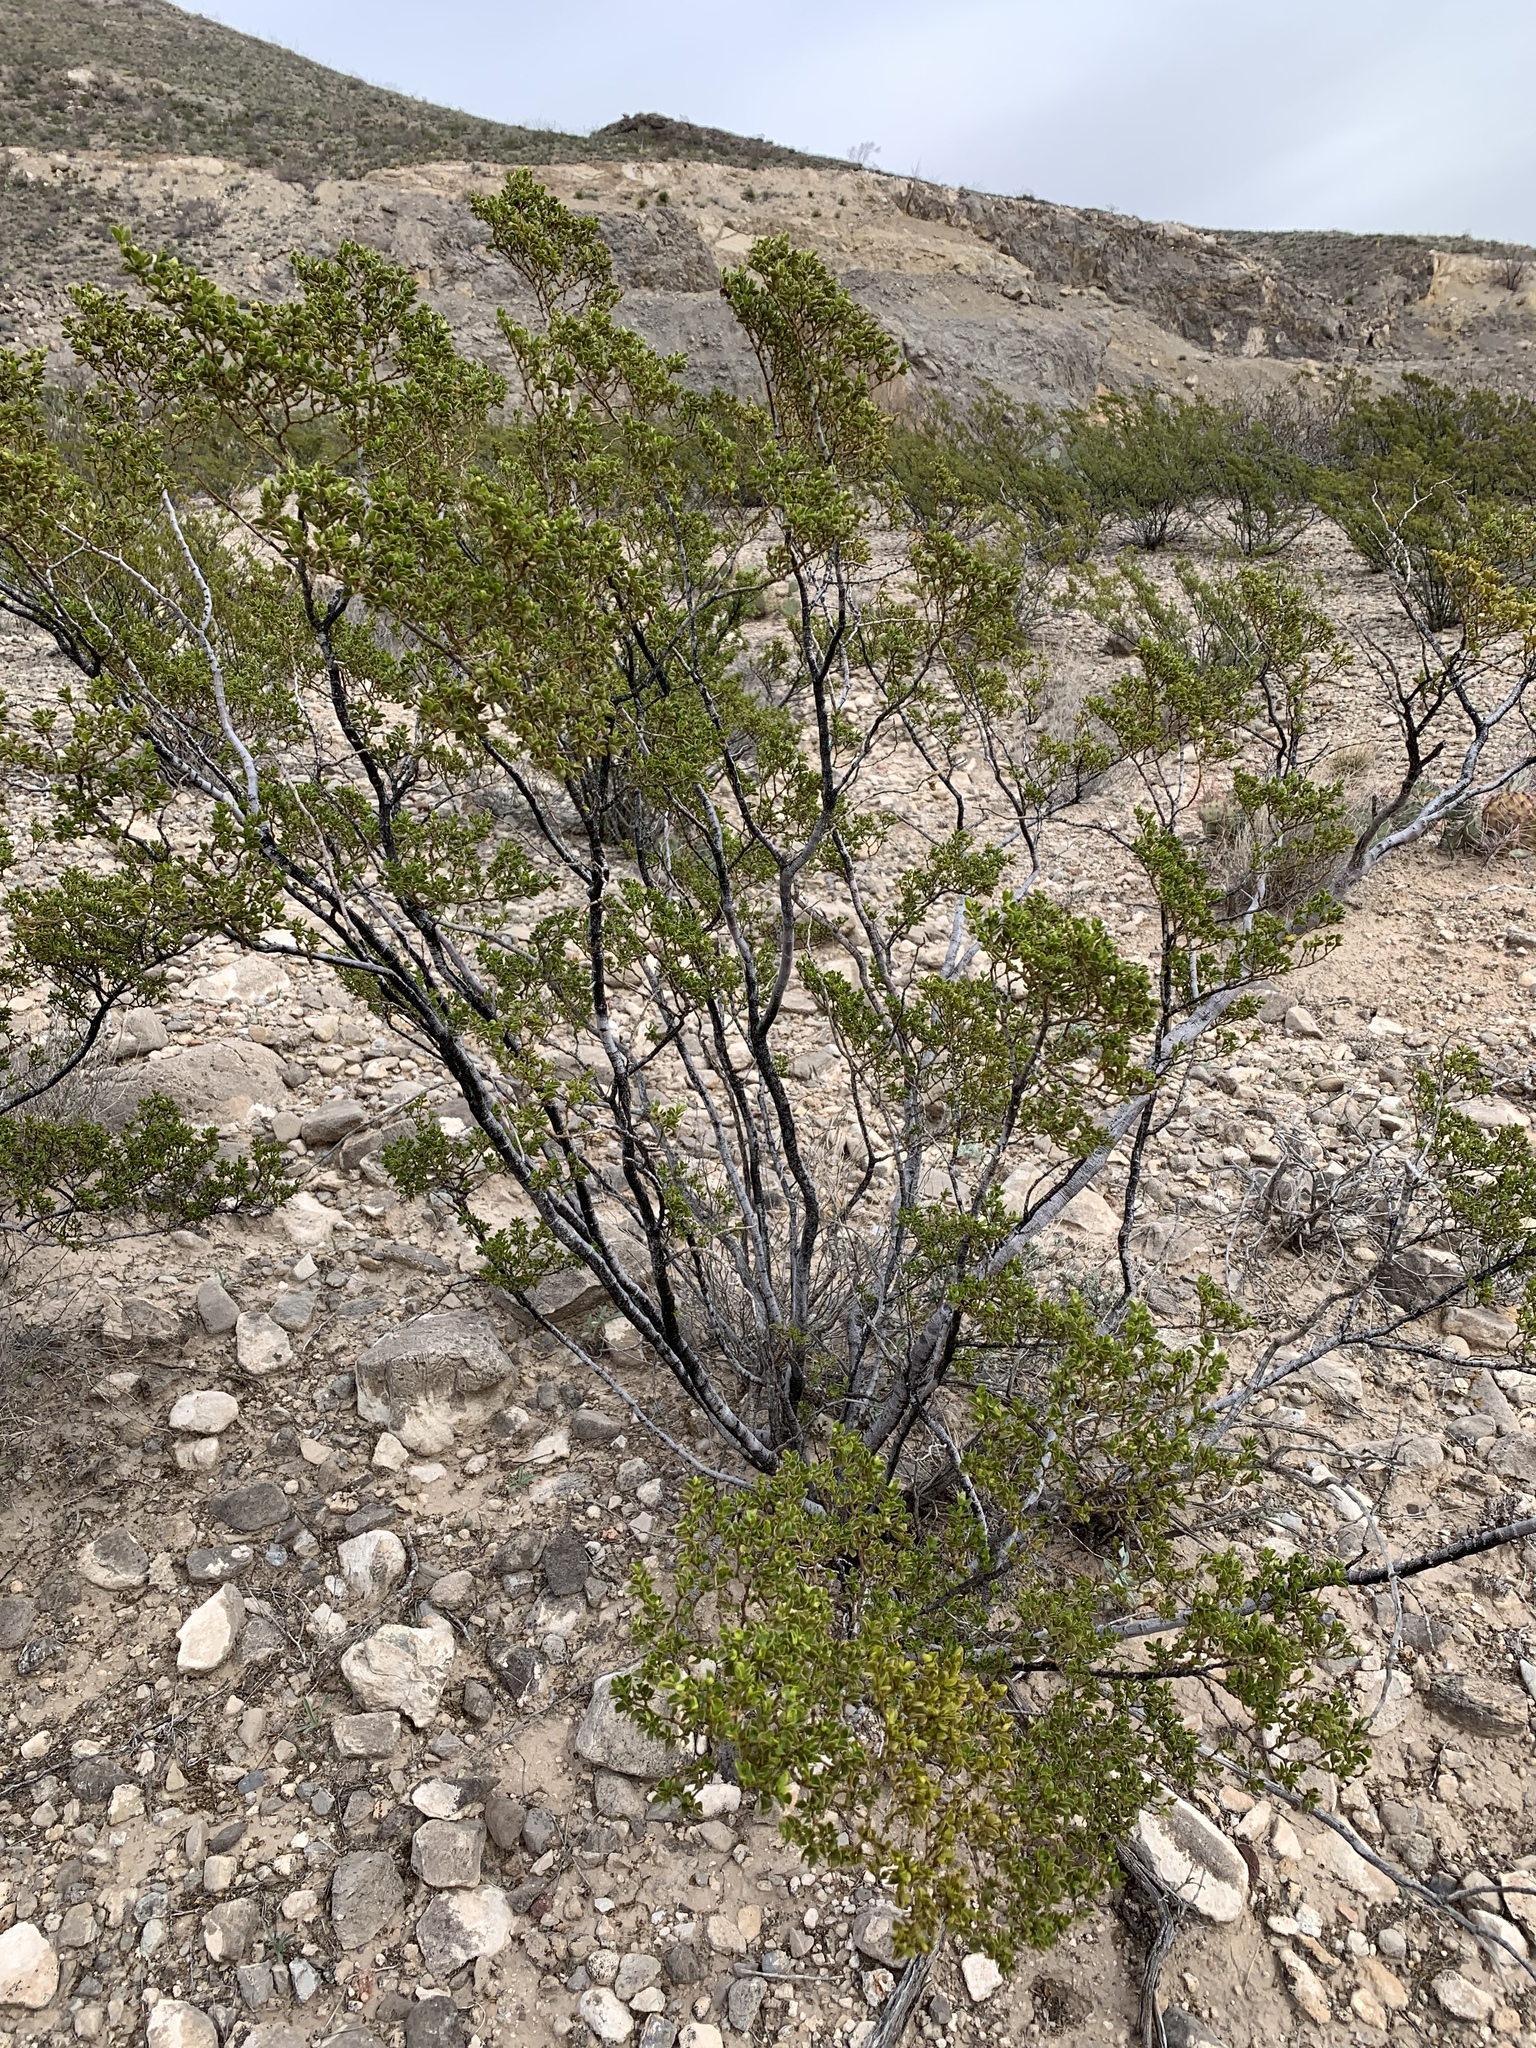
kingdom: Plantae
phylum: Tracheophyta
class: Magnoliopsida
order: Zygophyllales
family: Zygophyllaceae
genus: Larrea
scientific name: Larrea tridentata
